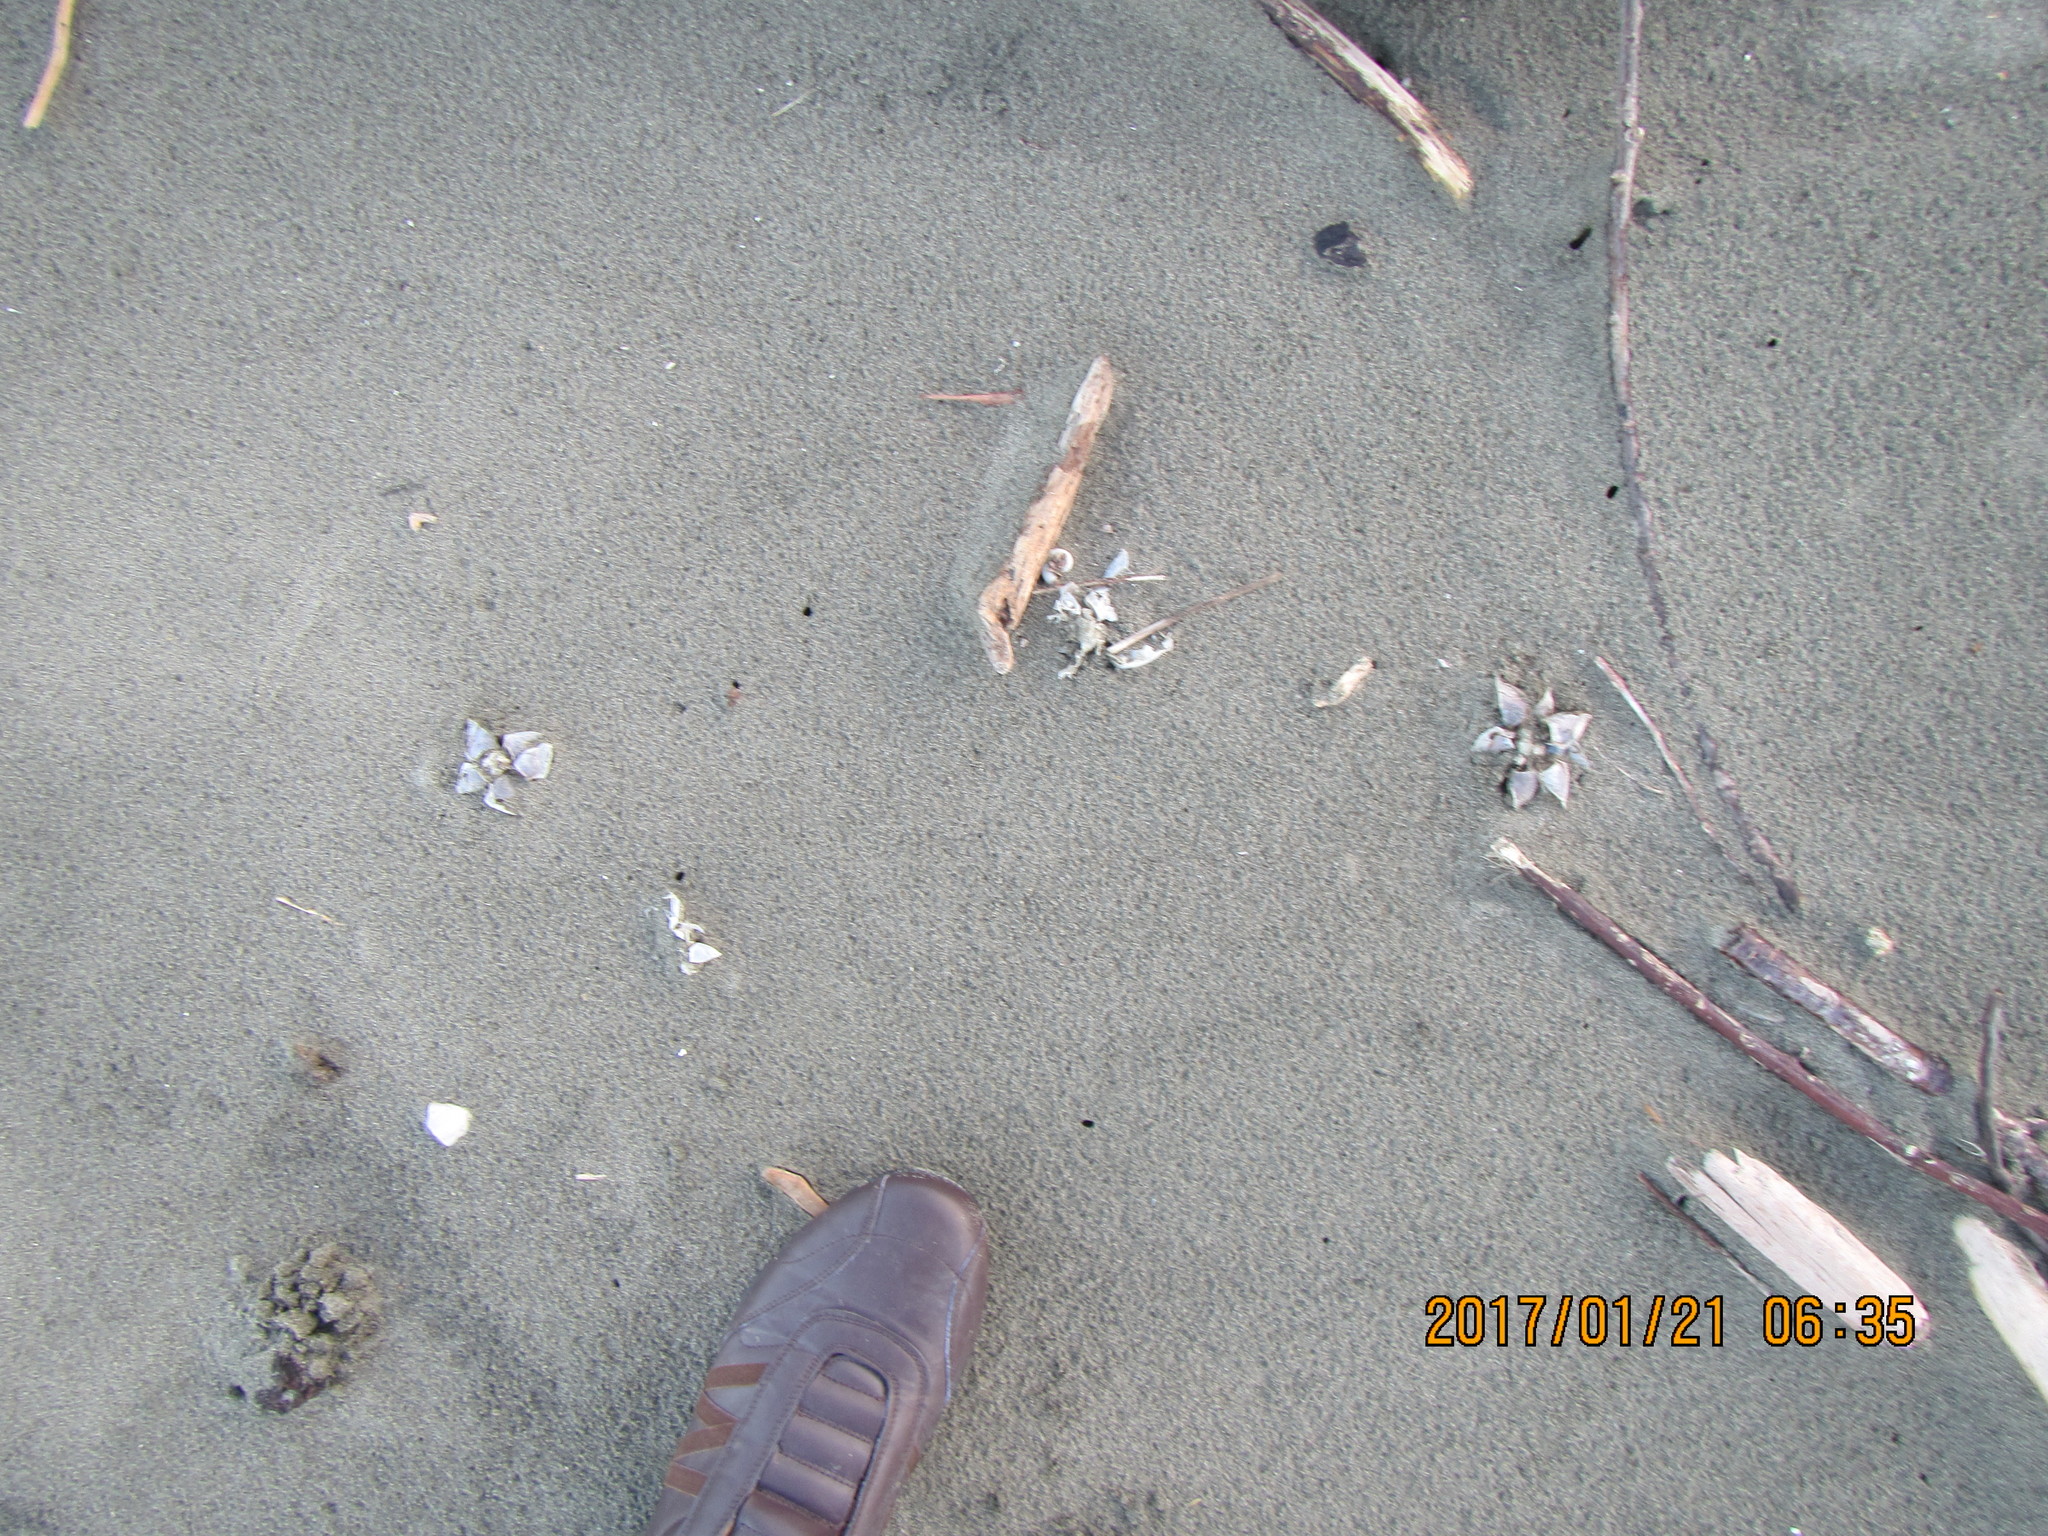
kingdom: Animalia
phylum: Arthropoda
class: Maxillopoda
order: Pedunculata
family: Lepadidae
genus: Dosima
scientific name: Dosima fascicularis
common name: Buoy barnacle
